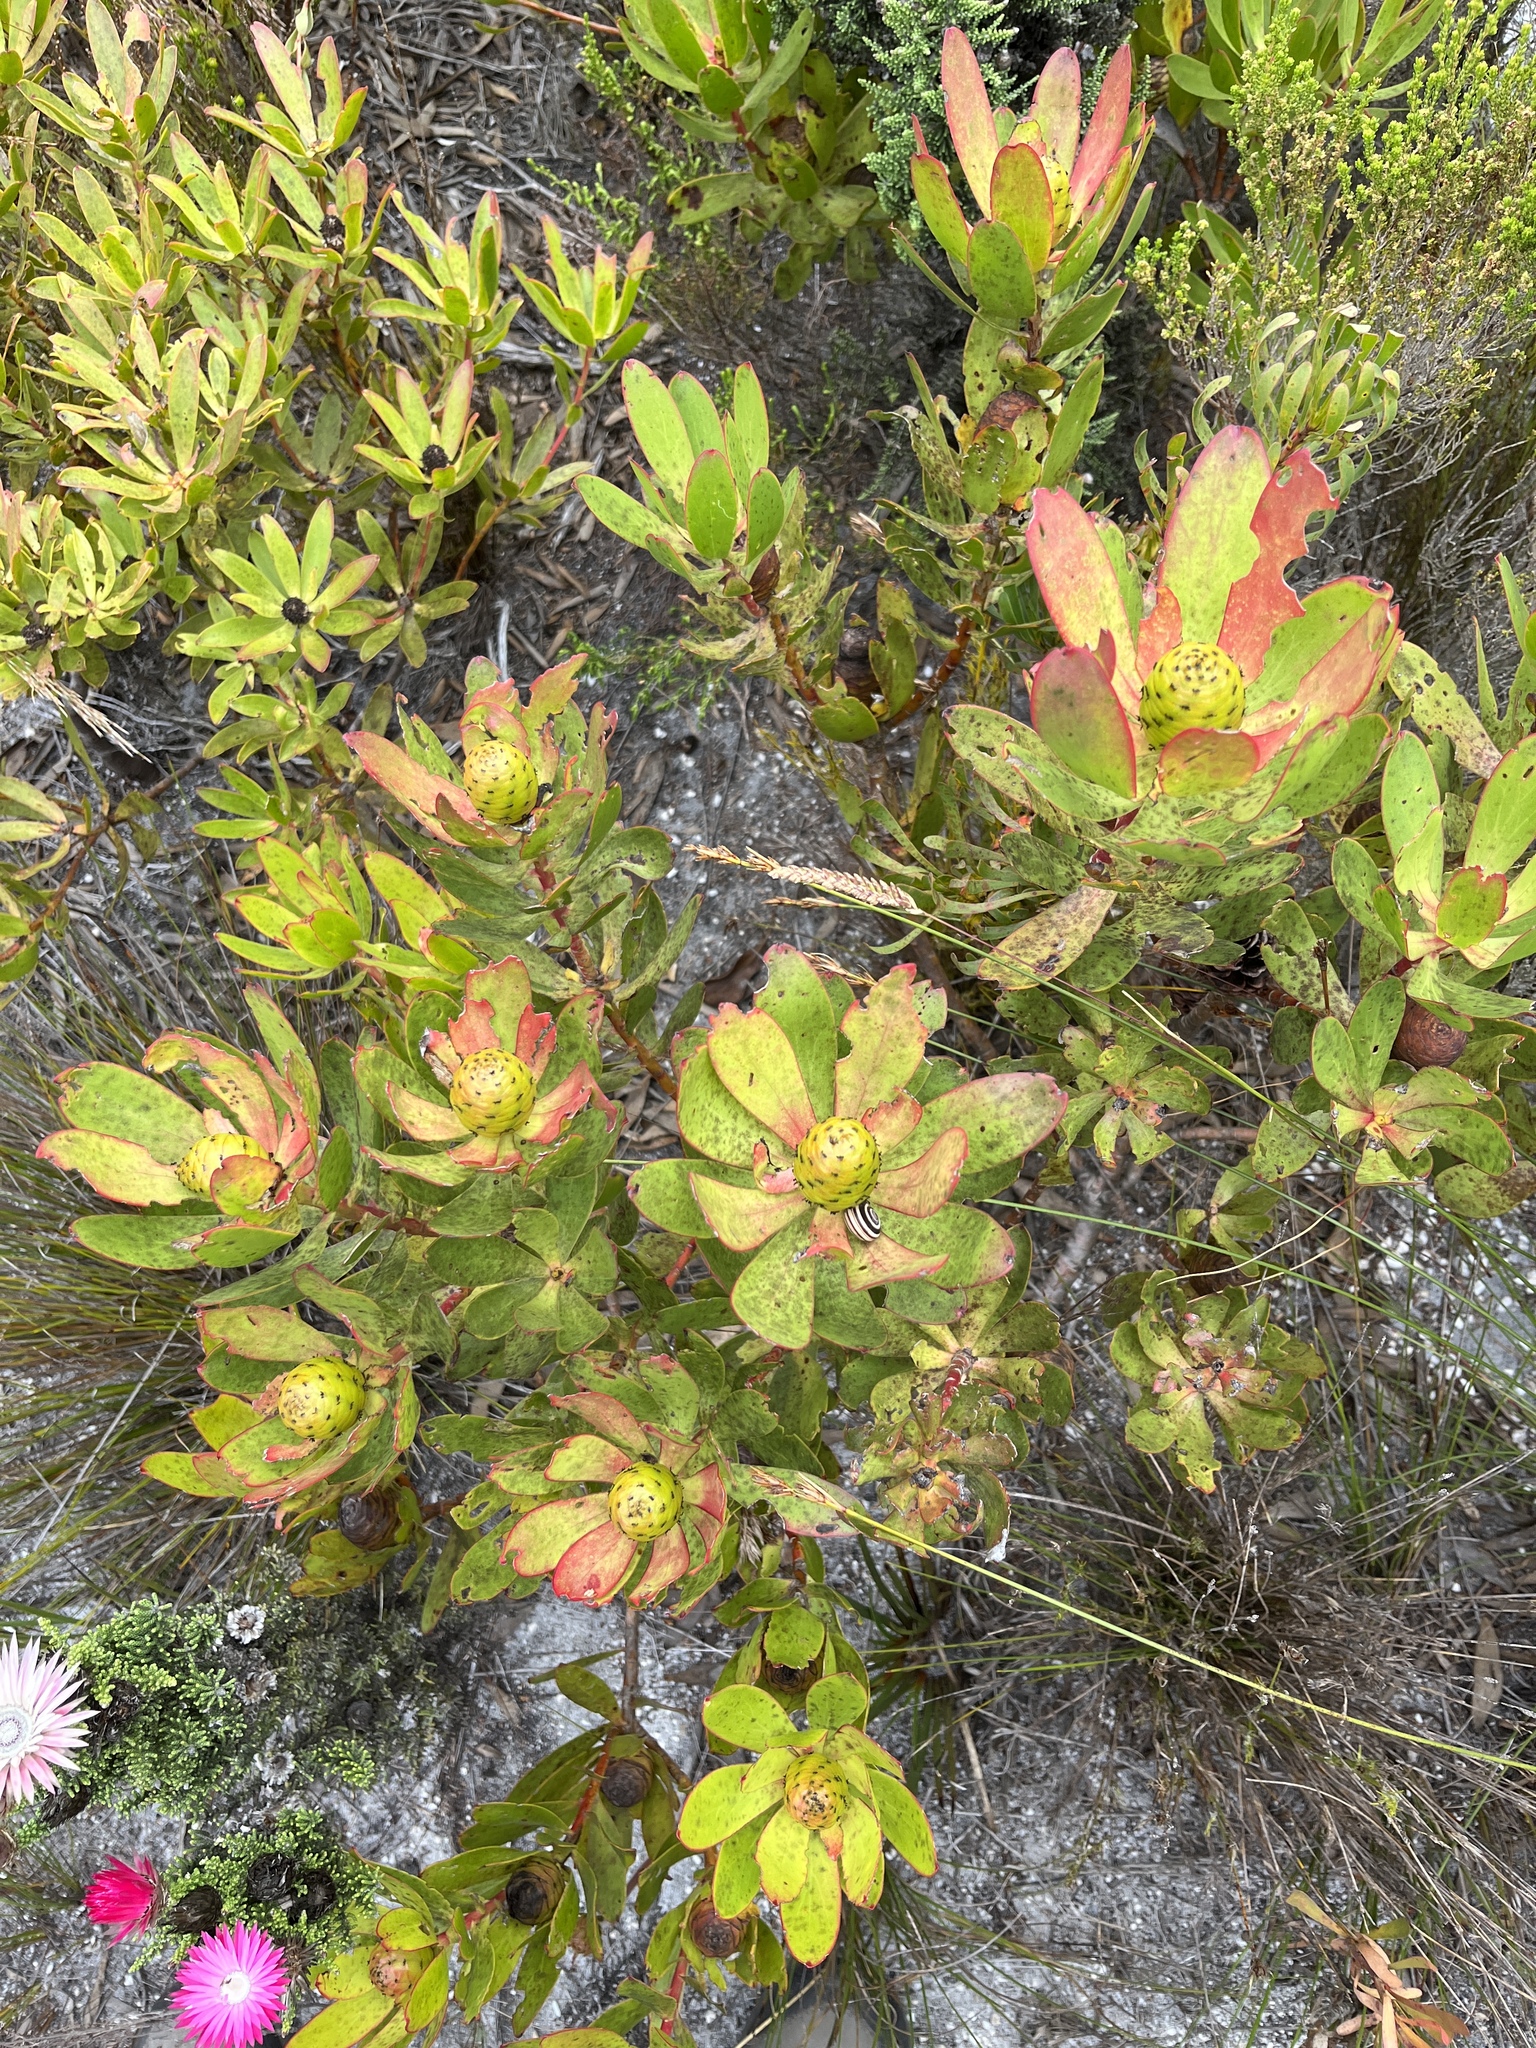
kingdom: Plantae
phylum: Tracheophyta
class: Magnoliopsida
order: Proteales
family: Proteaceae
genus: Leucadendron
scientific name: Leucadendron gandogeri
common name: Broad-leaf conebush
